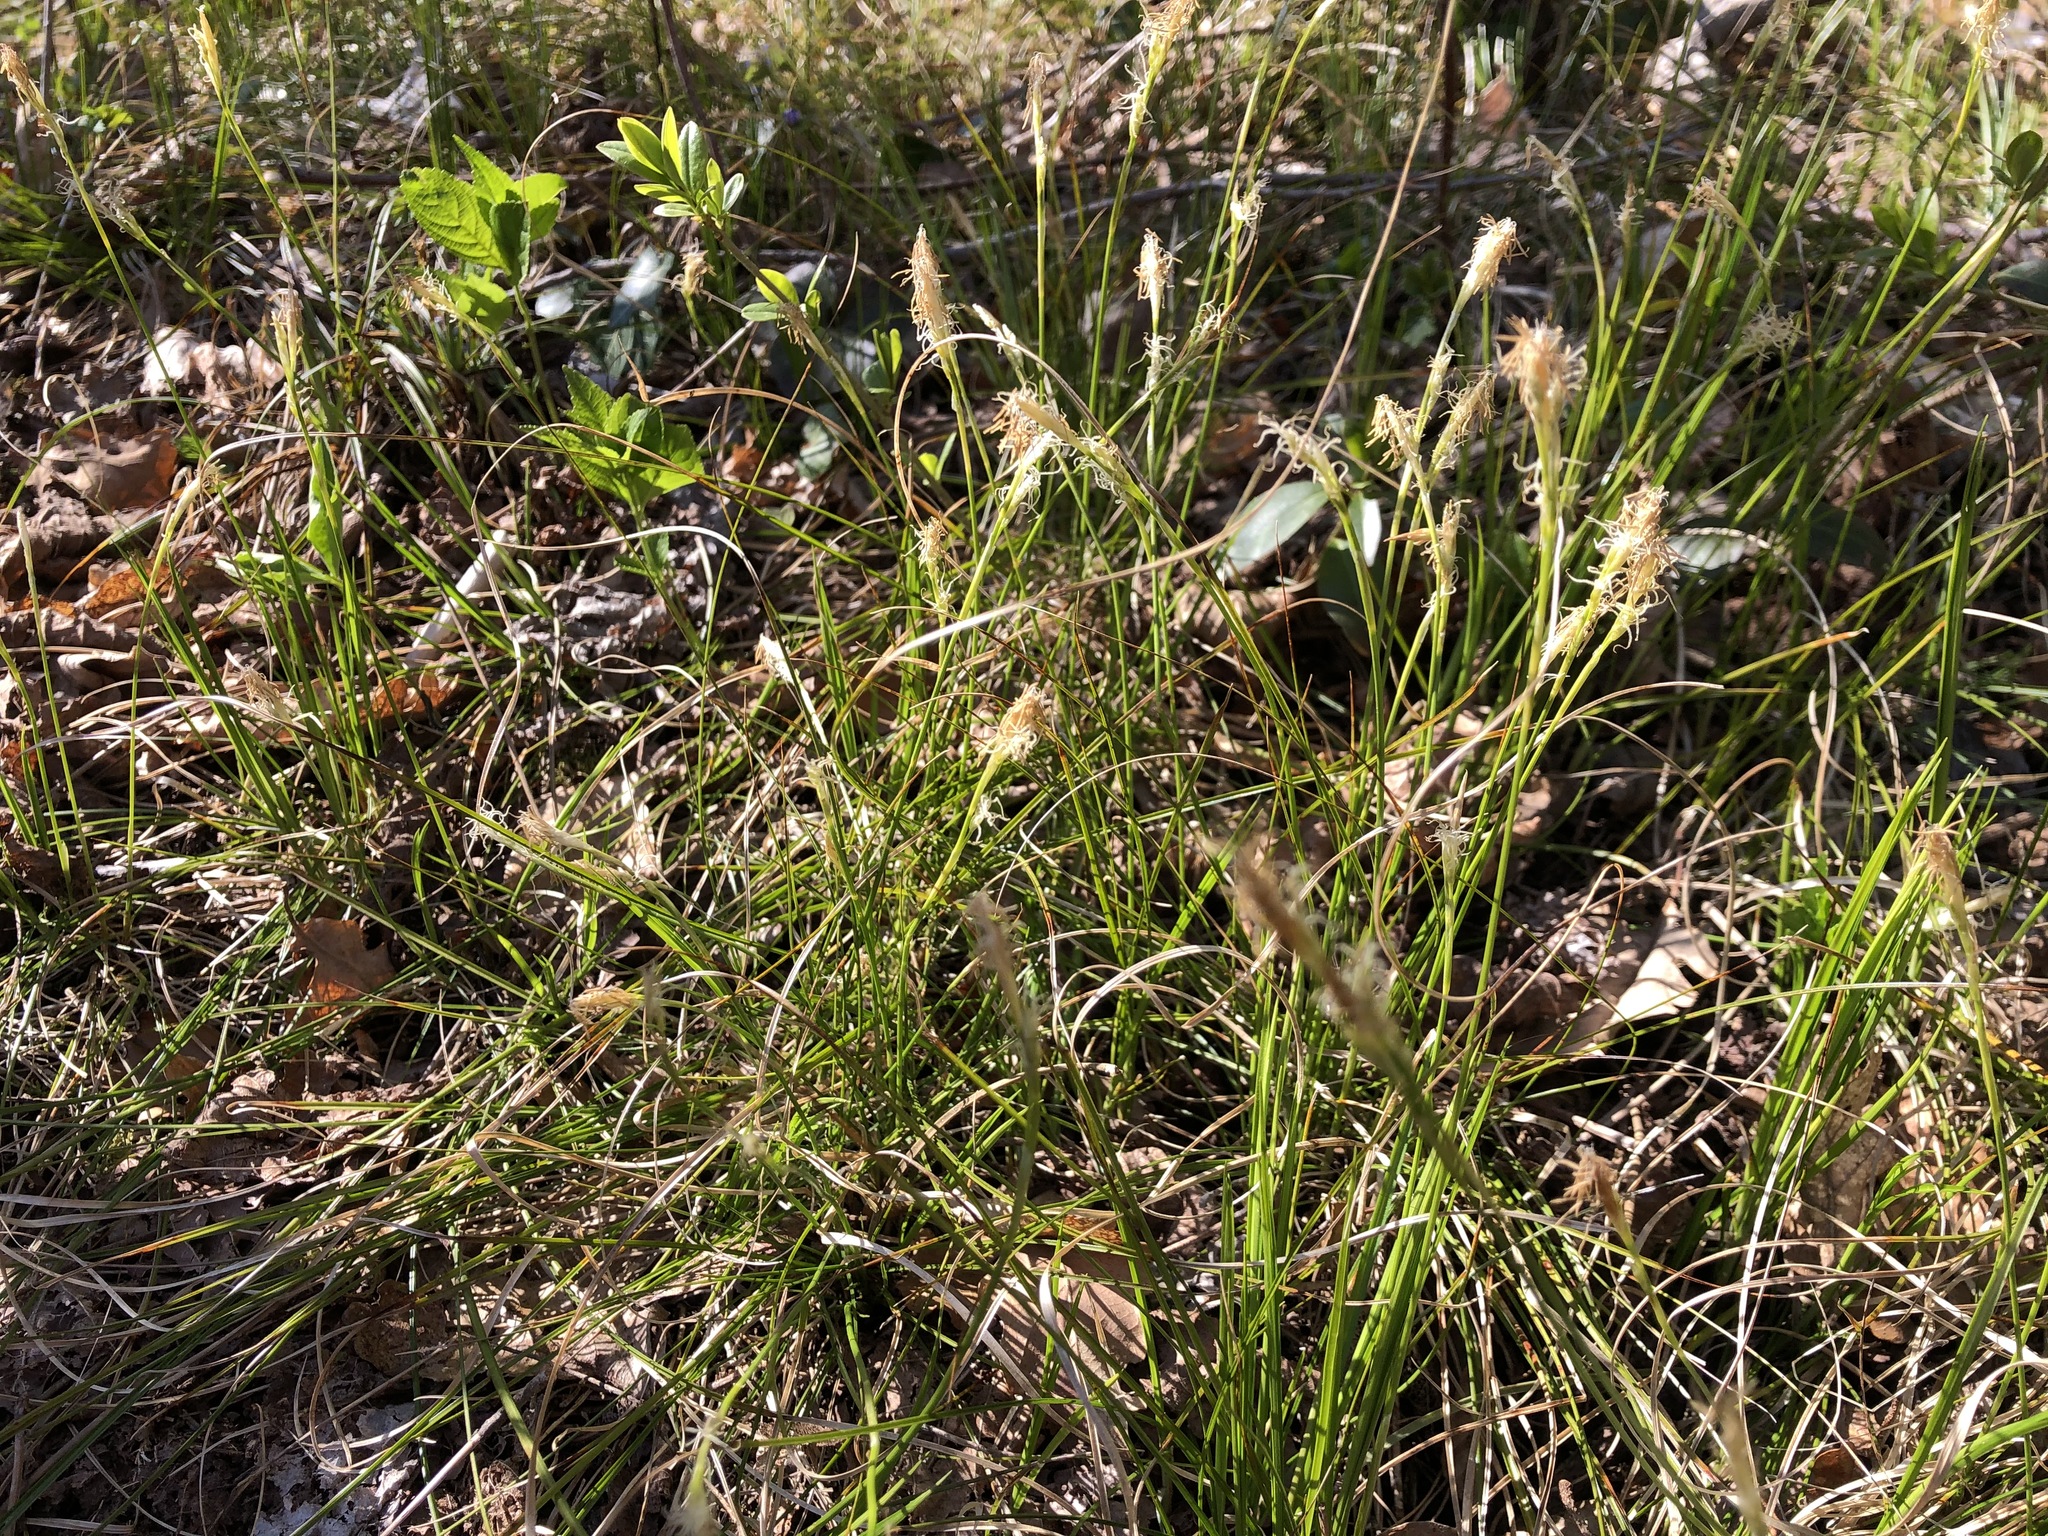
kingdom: Plantae
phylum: Tracheophyta
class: Liliopsida
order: Poales
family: Cyperaceae
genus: Carex
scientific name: Carex alba
